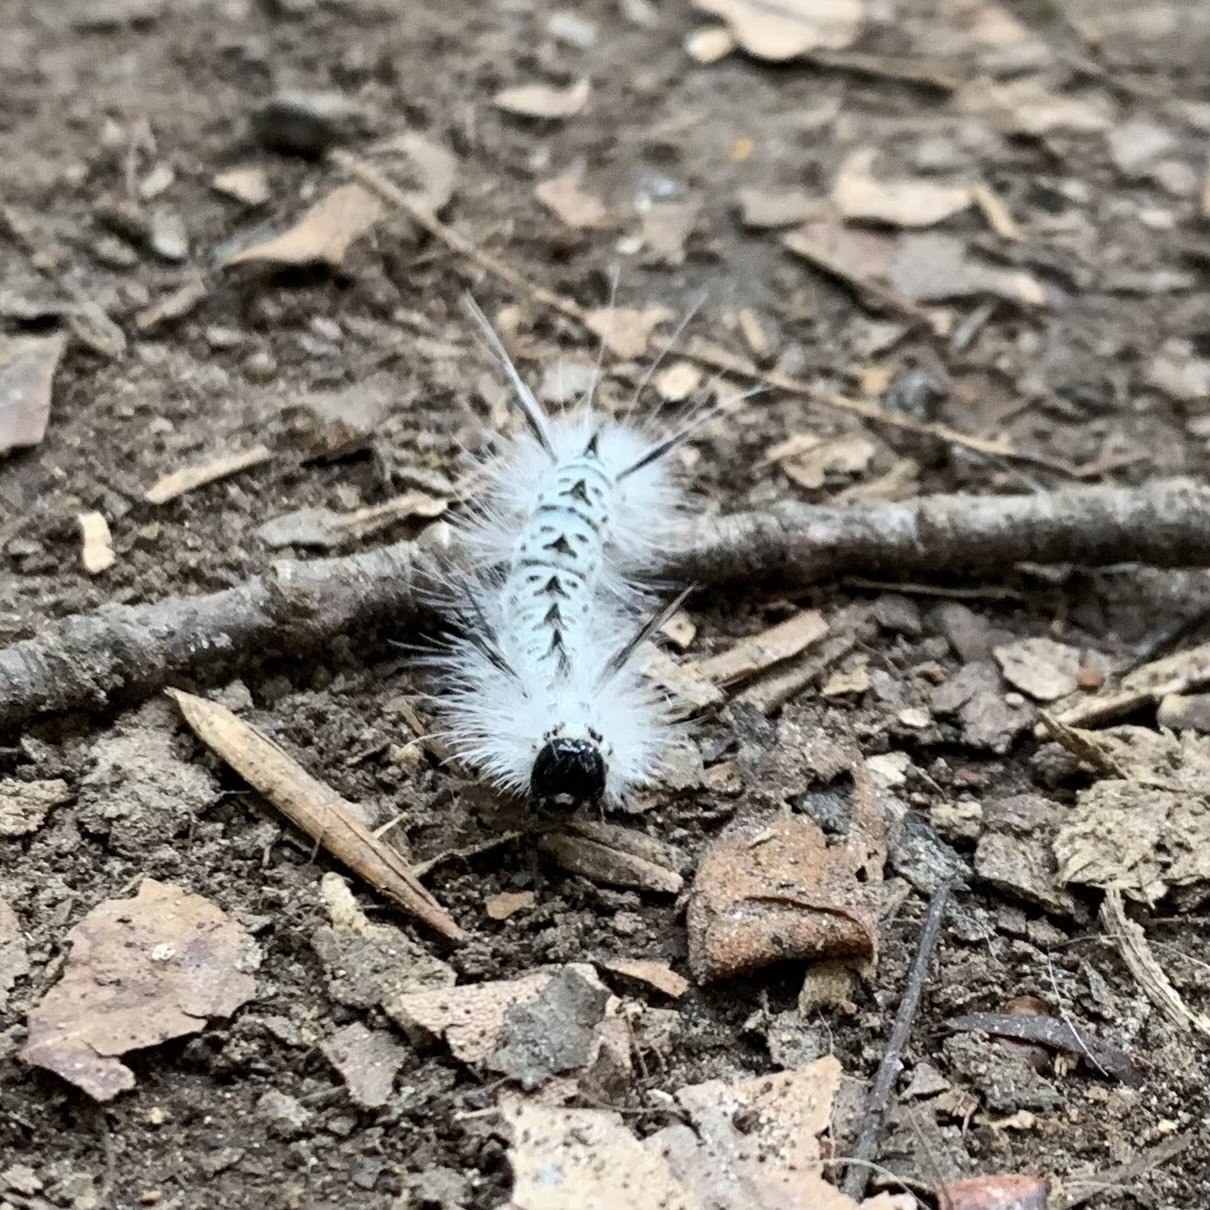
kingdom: Animalia
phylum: Arthropoda
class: Insecta
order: Lepidoptera
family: Erebidae
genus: Lophocampa
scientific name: Lophocampa caryae
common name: Hickory tussock moth
